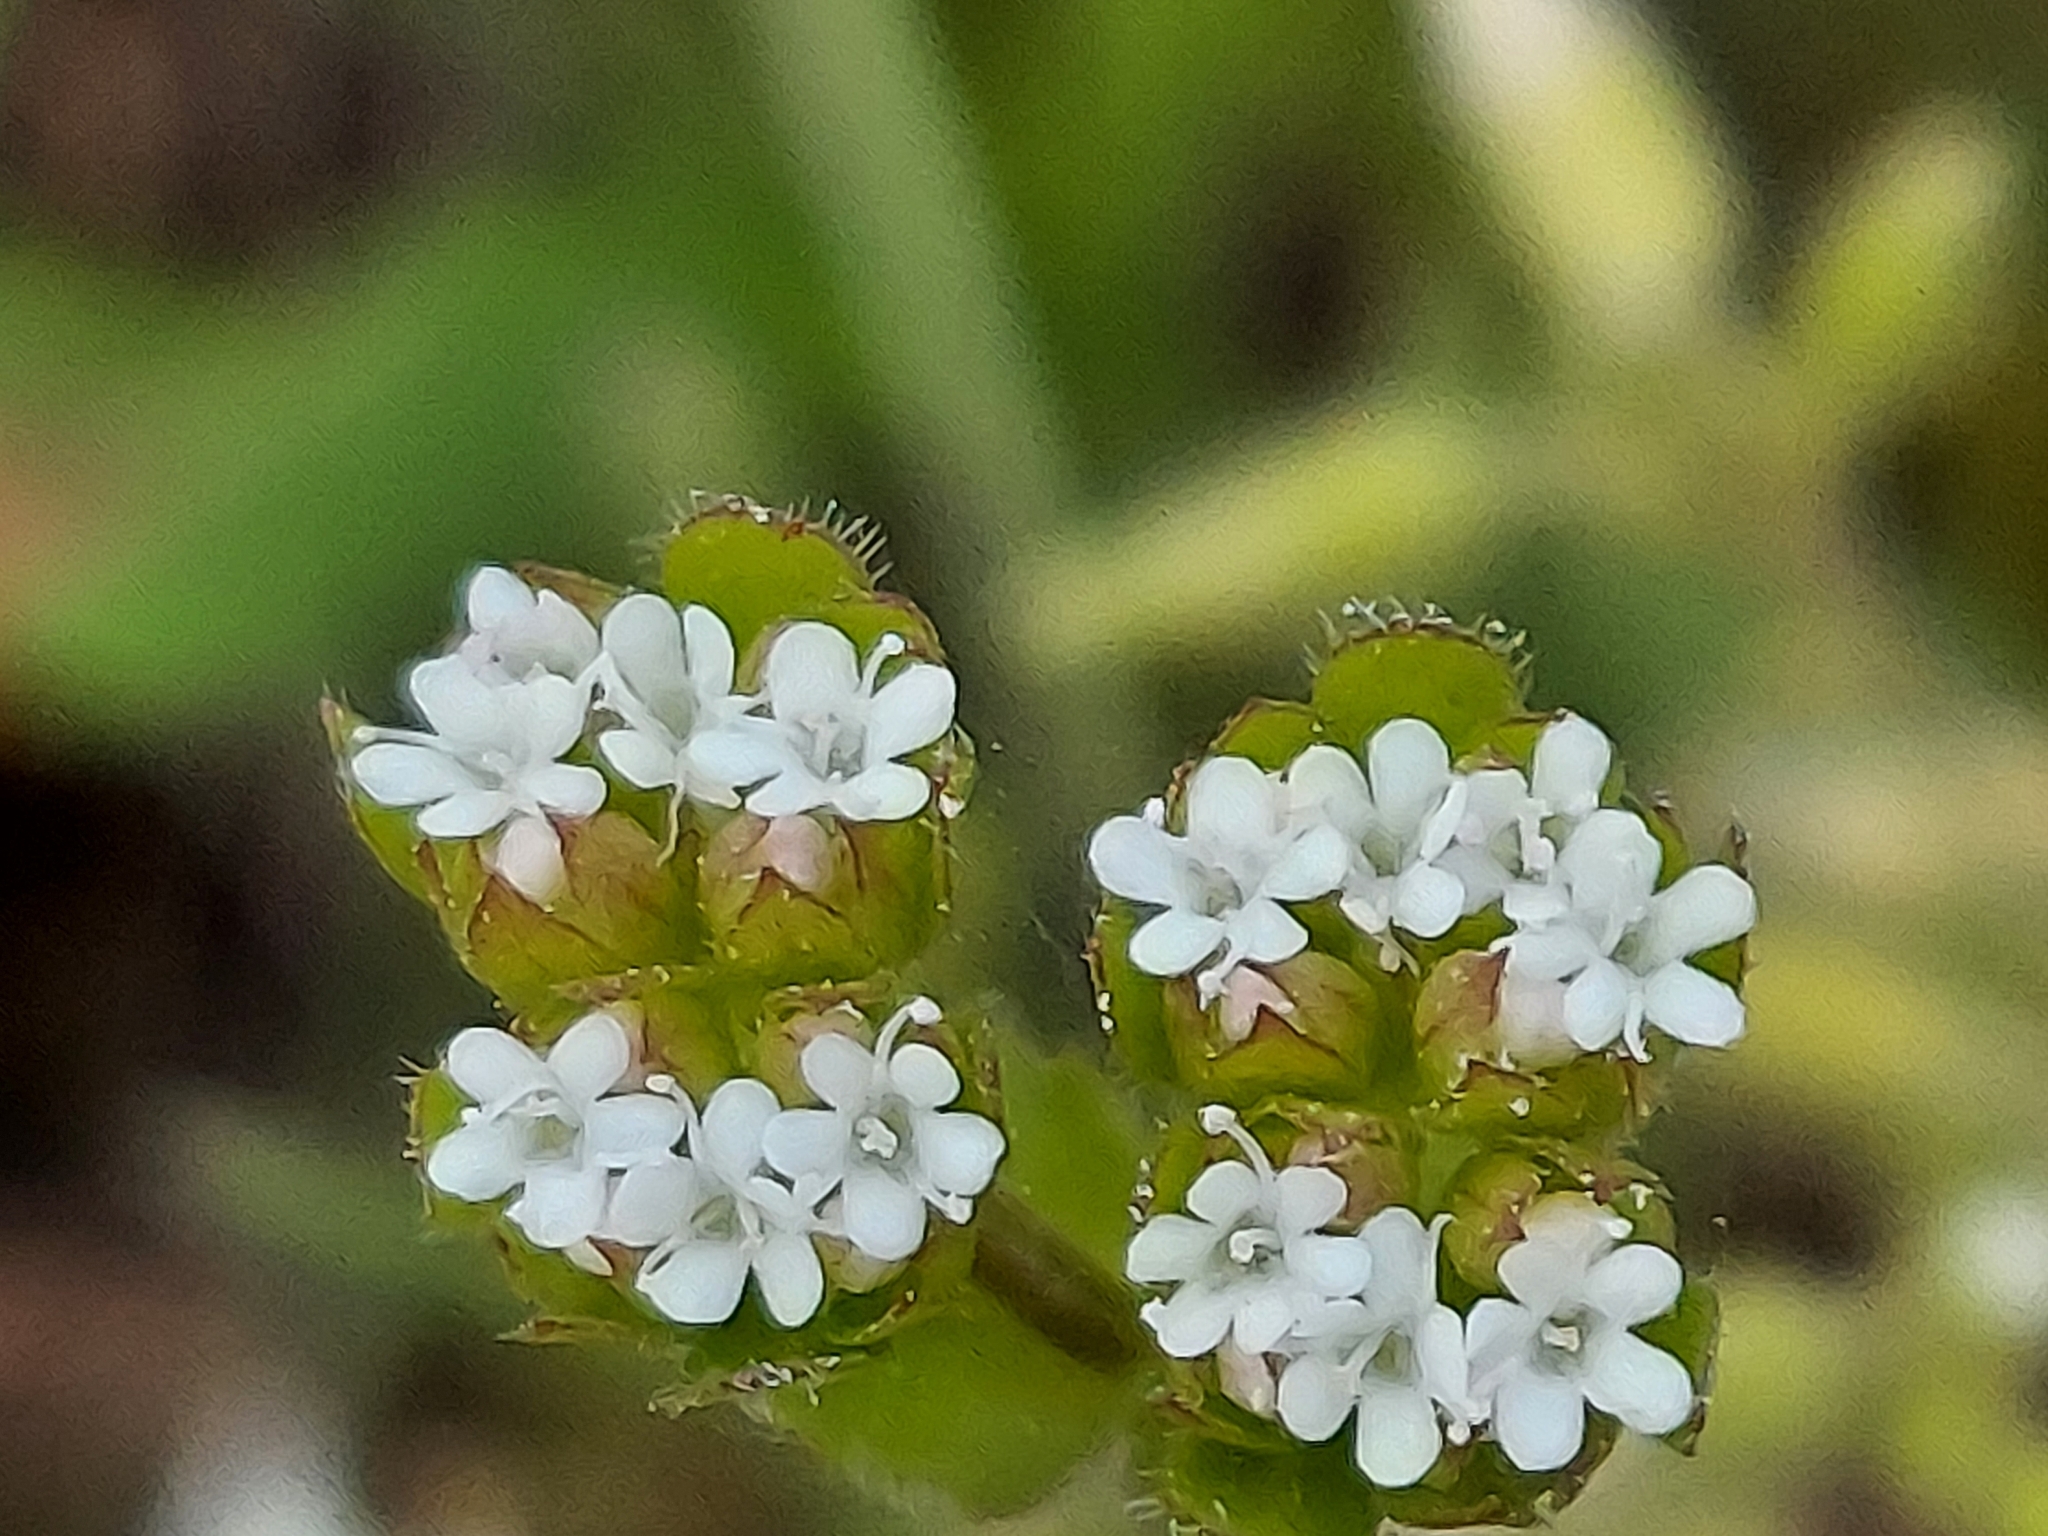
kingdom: Plantae
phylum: Tracheophyta
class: Magnoliopsida
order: Dipsacales
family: Caprifoliaceae
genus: Valerianella
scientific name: Valerianella radiata
